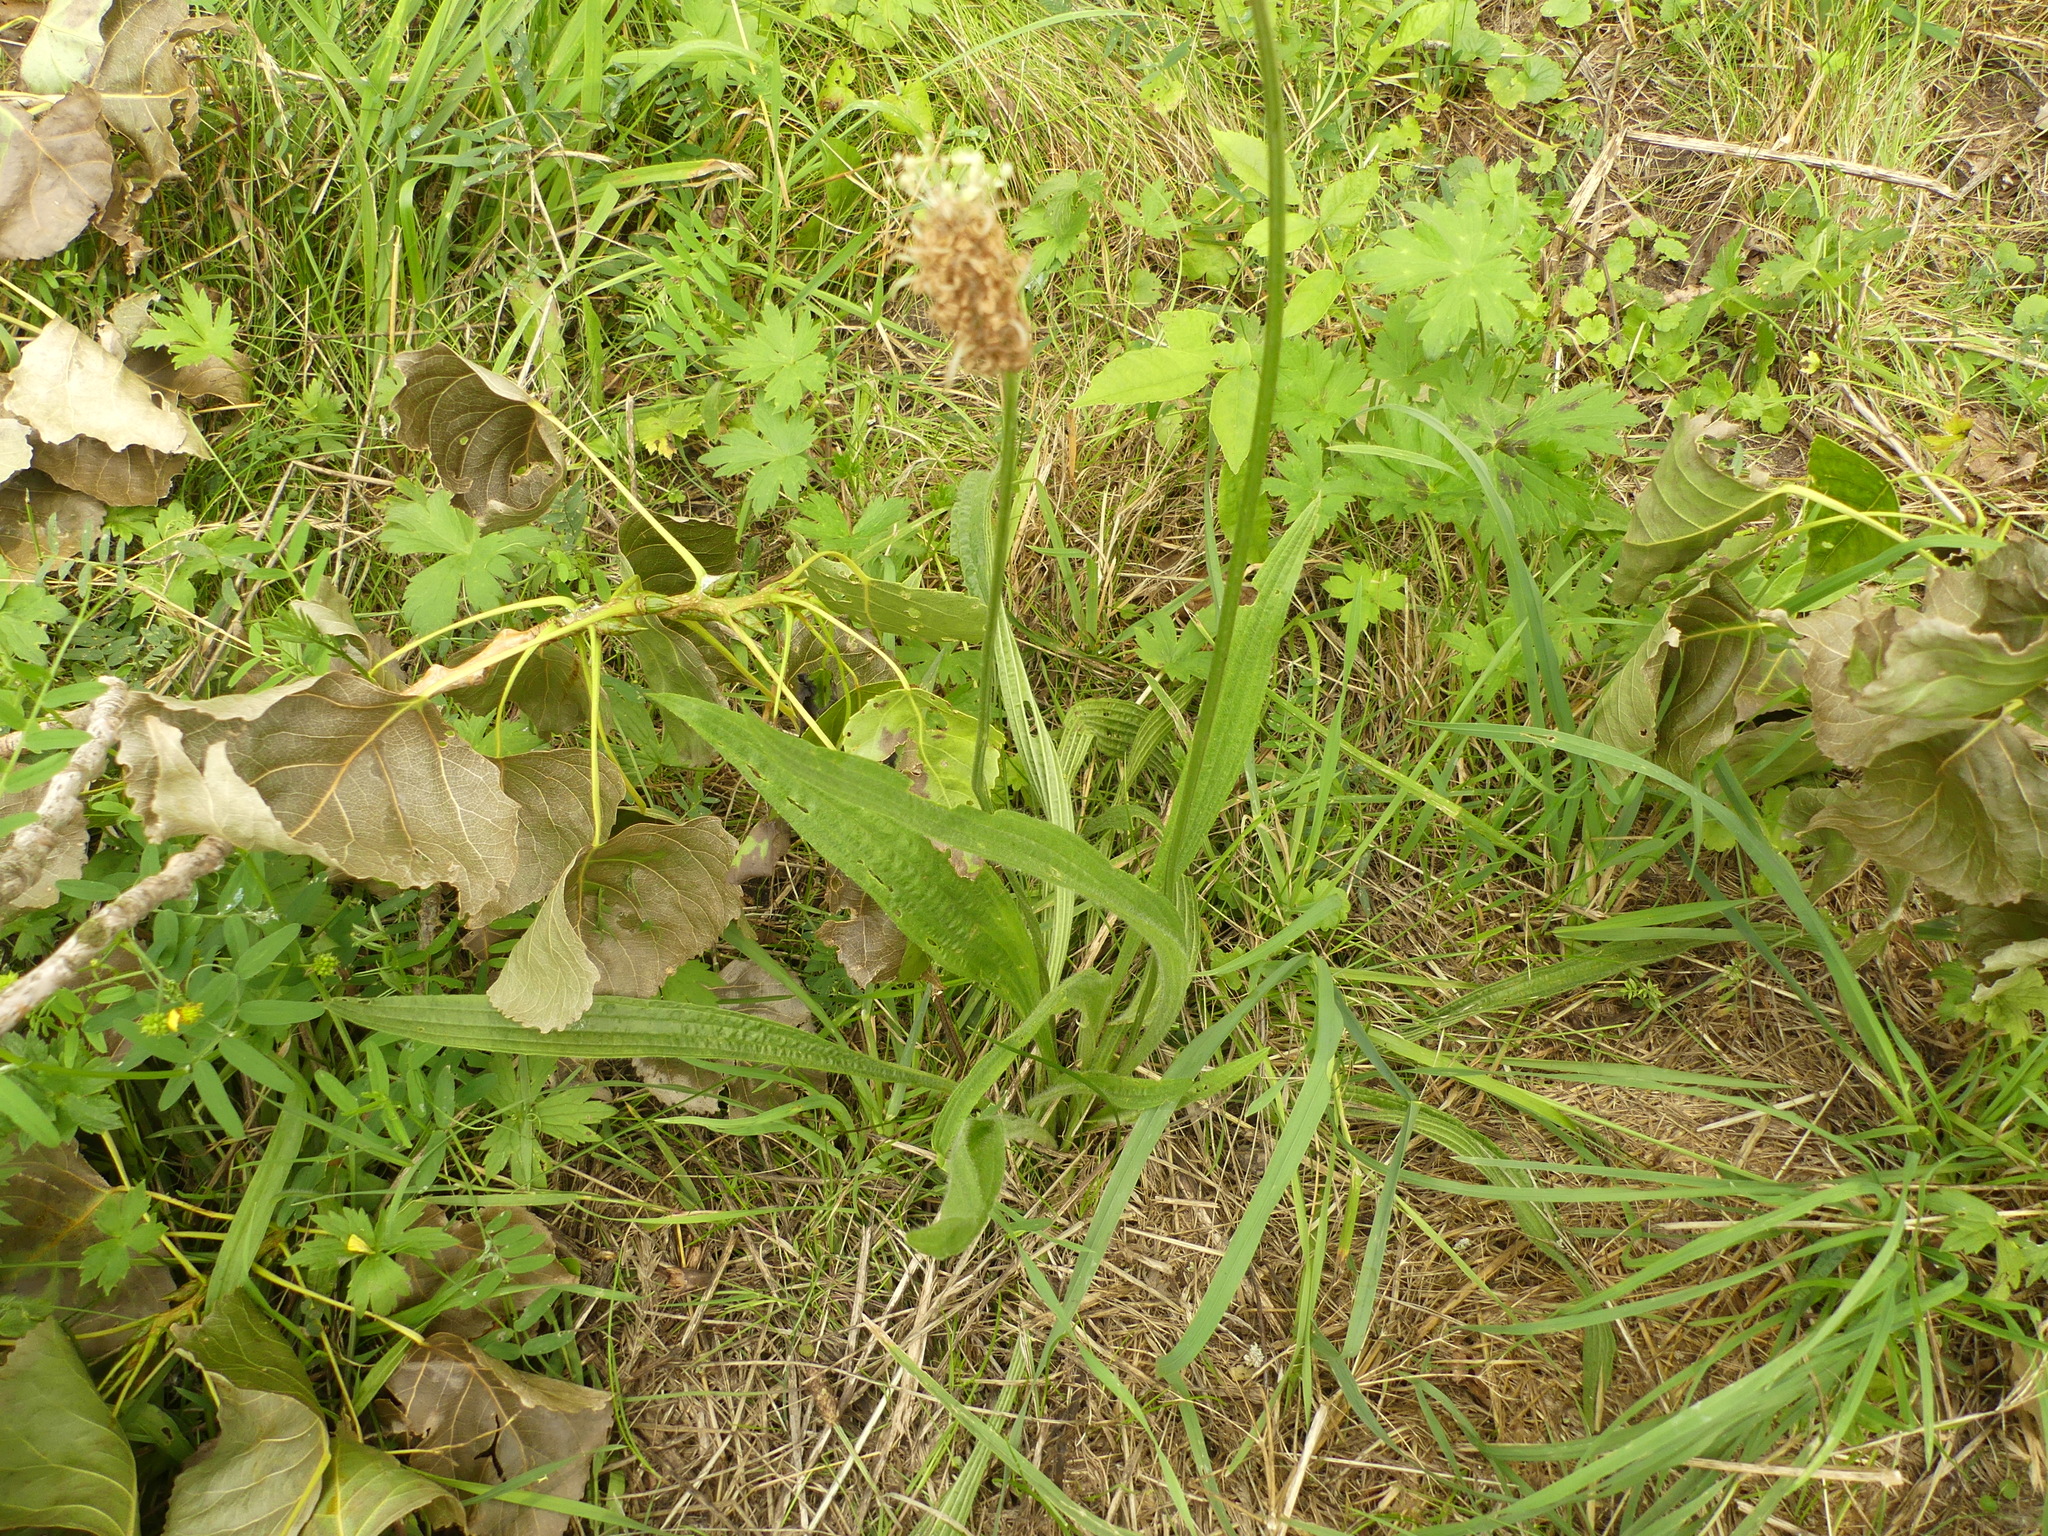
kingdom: Plantae
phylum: Tracheophyta
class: Magnoliopsida
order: Lamiales
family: Plantaginaceae
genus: Plantago
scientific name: Plantago lanceolata
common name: Ribwort plantain
